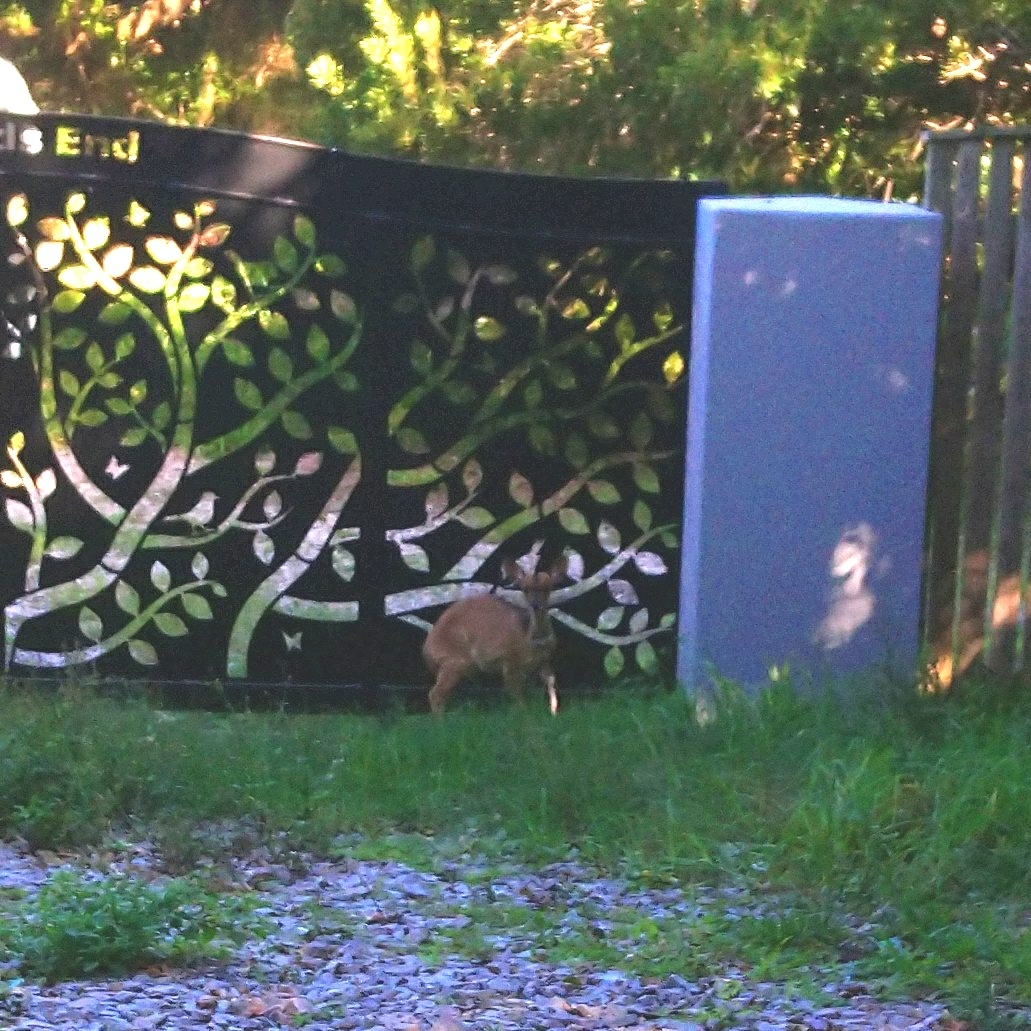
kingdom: Animalia
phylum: Chordata
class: Mammalia
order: Artiodactyla
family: Bovidae
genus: Tragelaphus
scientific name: Tragelaphus scriptus
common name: Bushbuck
